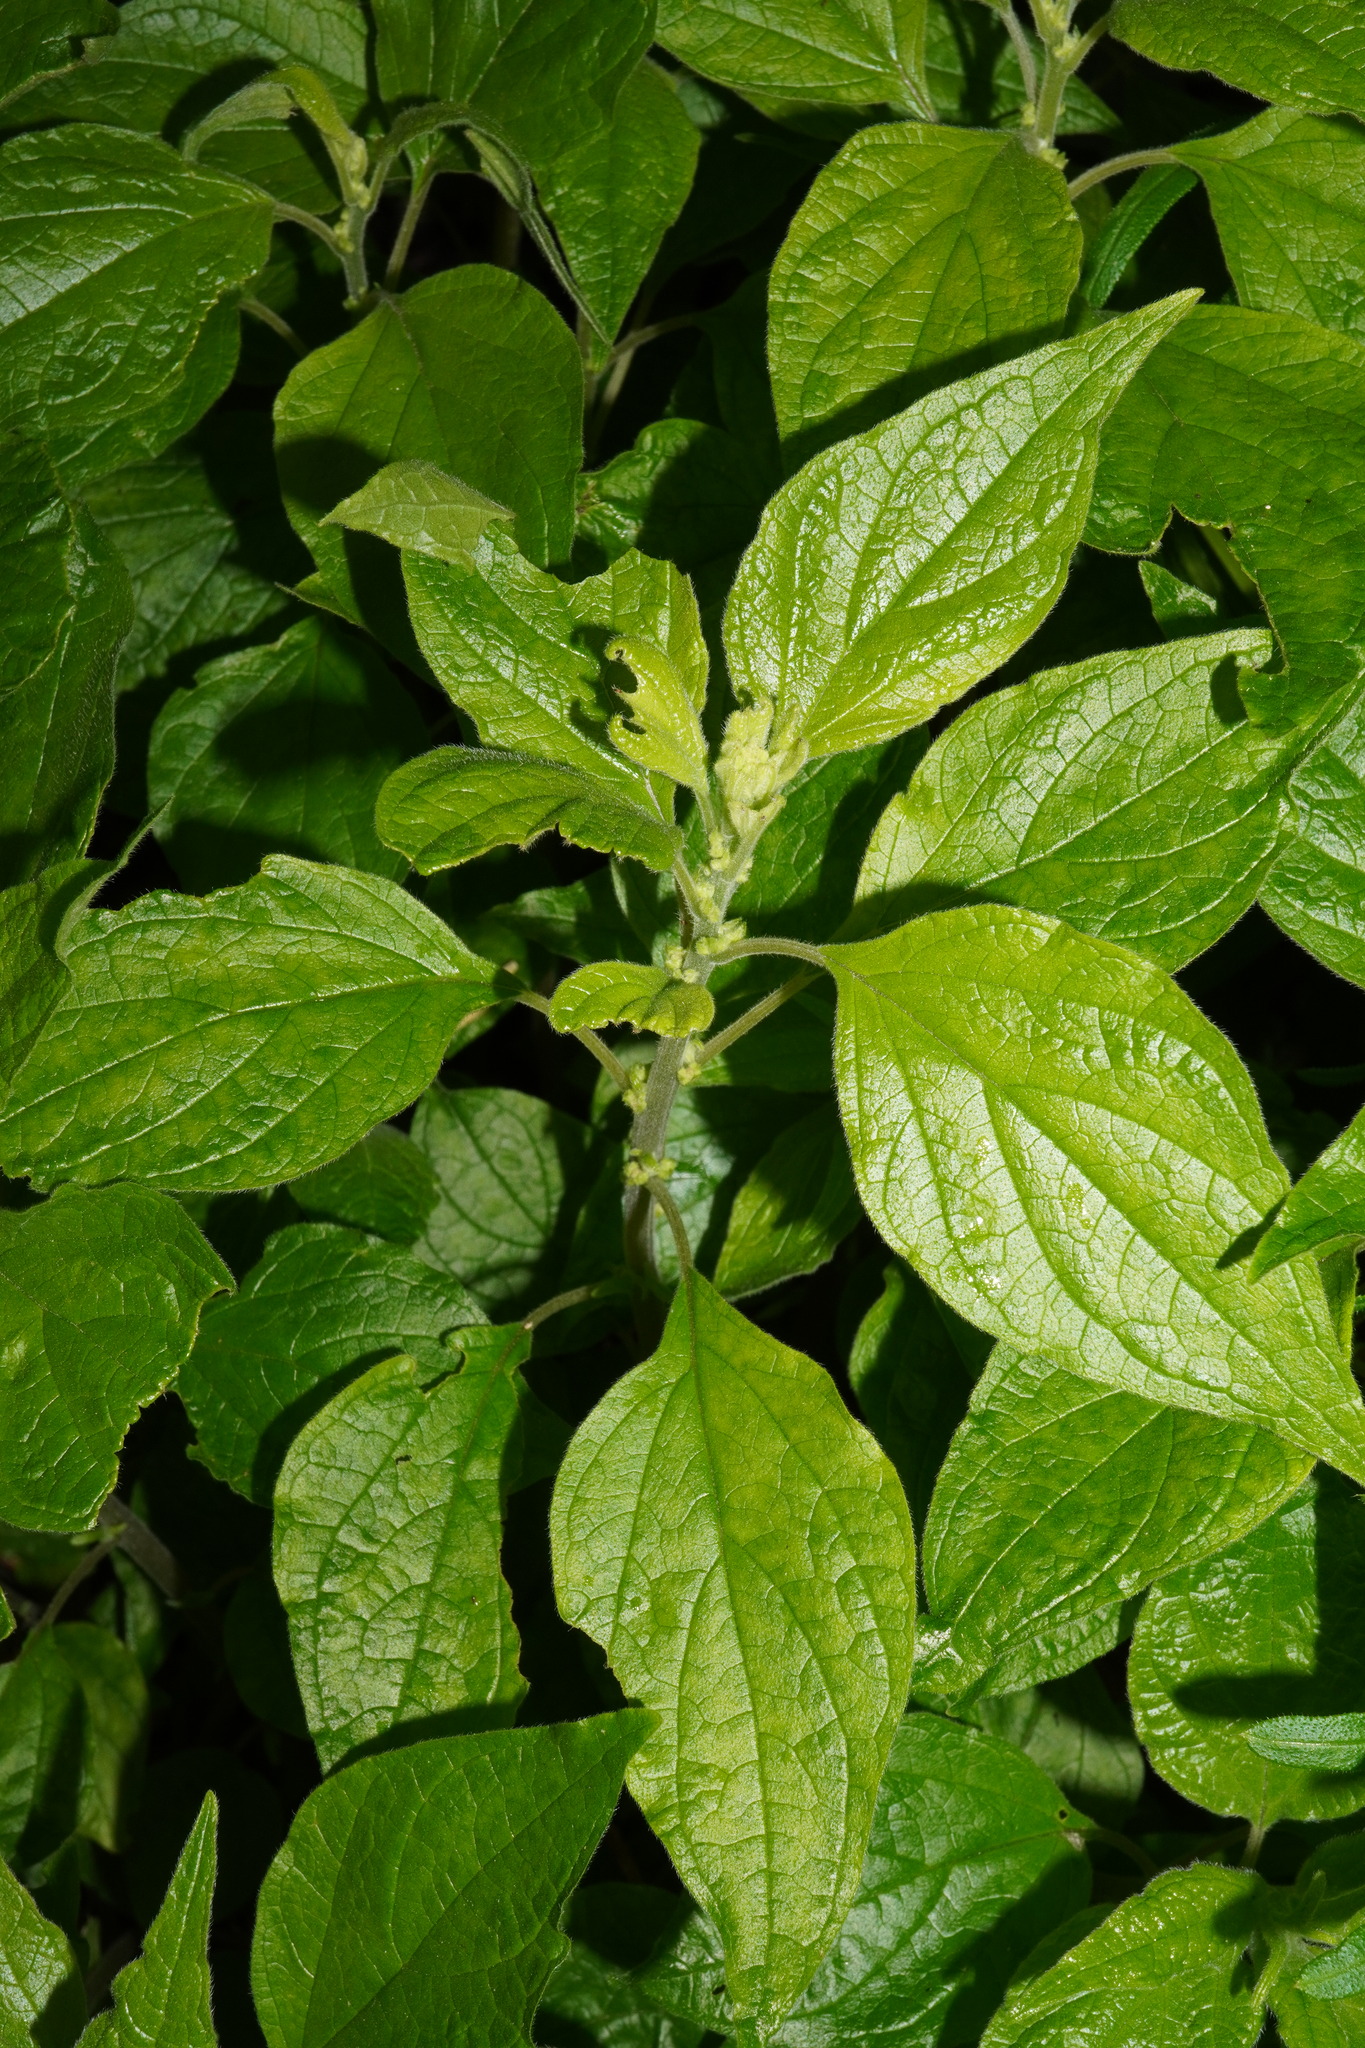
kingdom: Plantae
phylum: Tracheophyta
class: Magnoliopsida
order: Rosales
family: Urticaceae
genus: Parietaria
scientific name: Parietaria officinalis
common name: Eastern pellitory-of-the-wall
